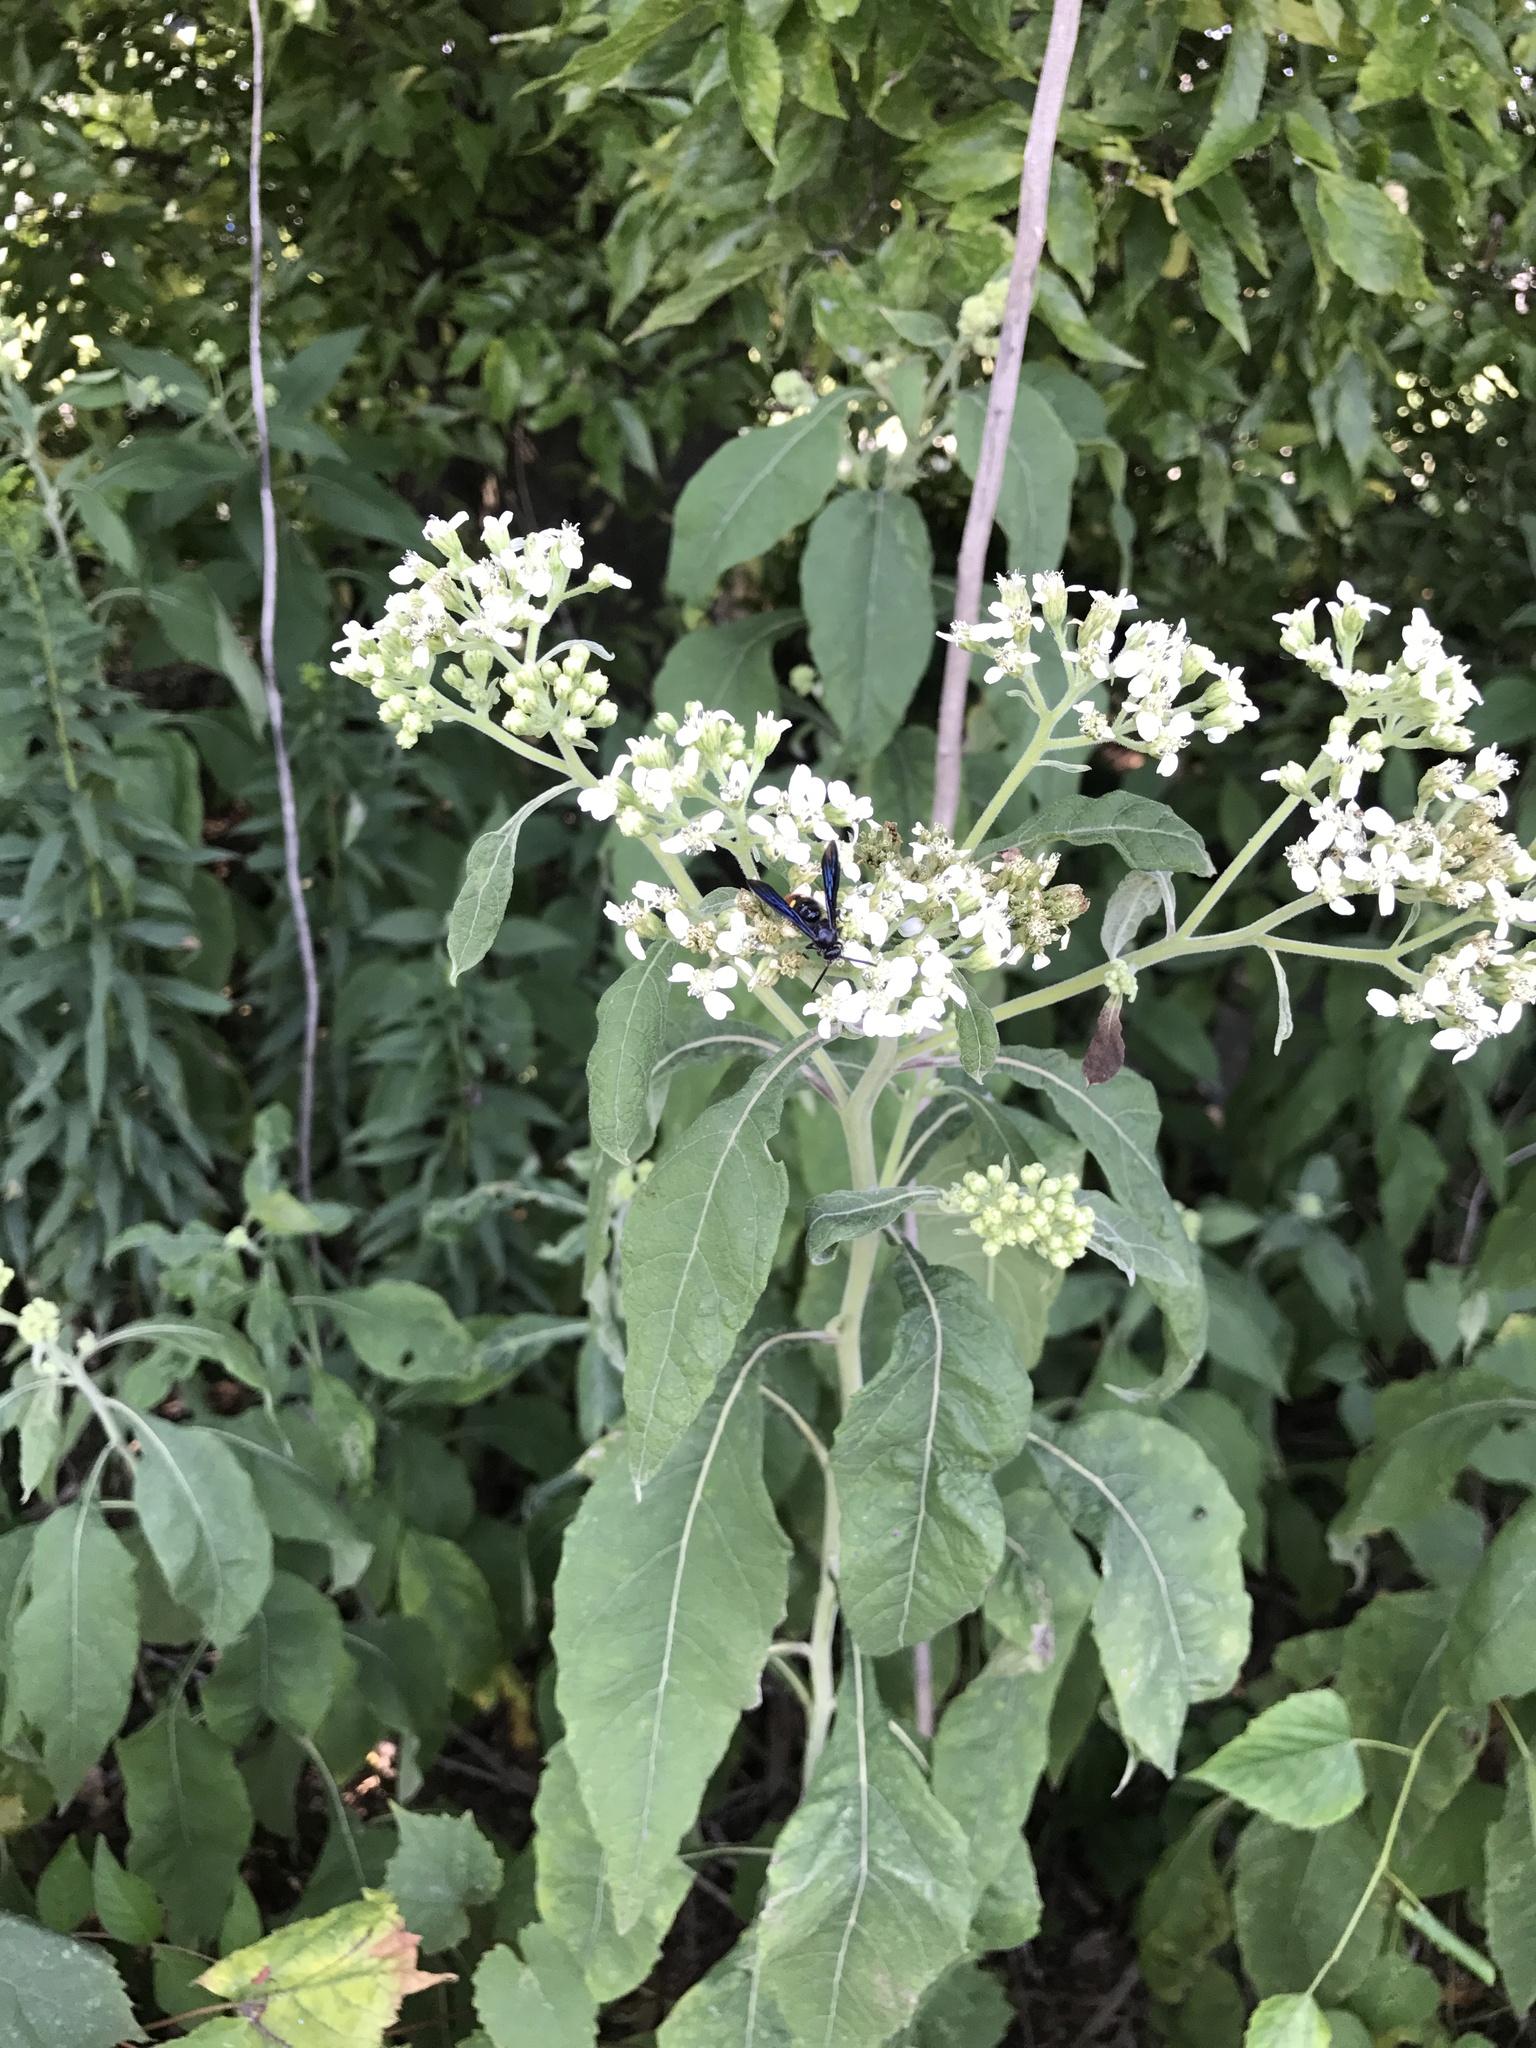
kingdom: Plantae
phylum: Tracheophyta
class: Magnoliopsida
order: Asterales
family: Asteraceae
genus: Verbesina
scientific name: Verbesina virginica
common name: Frostweed
